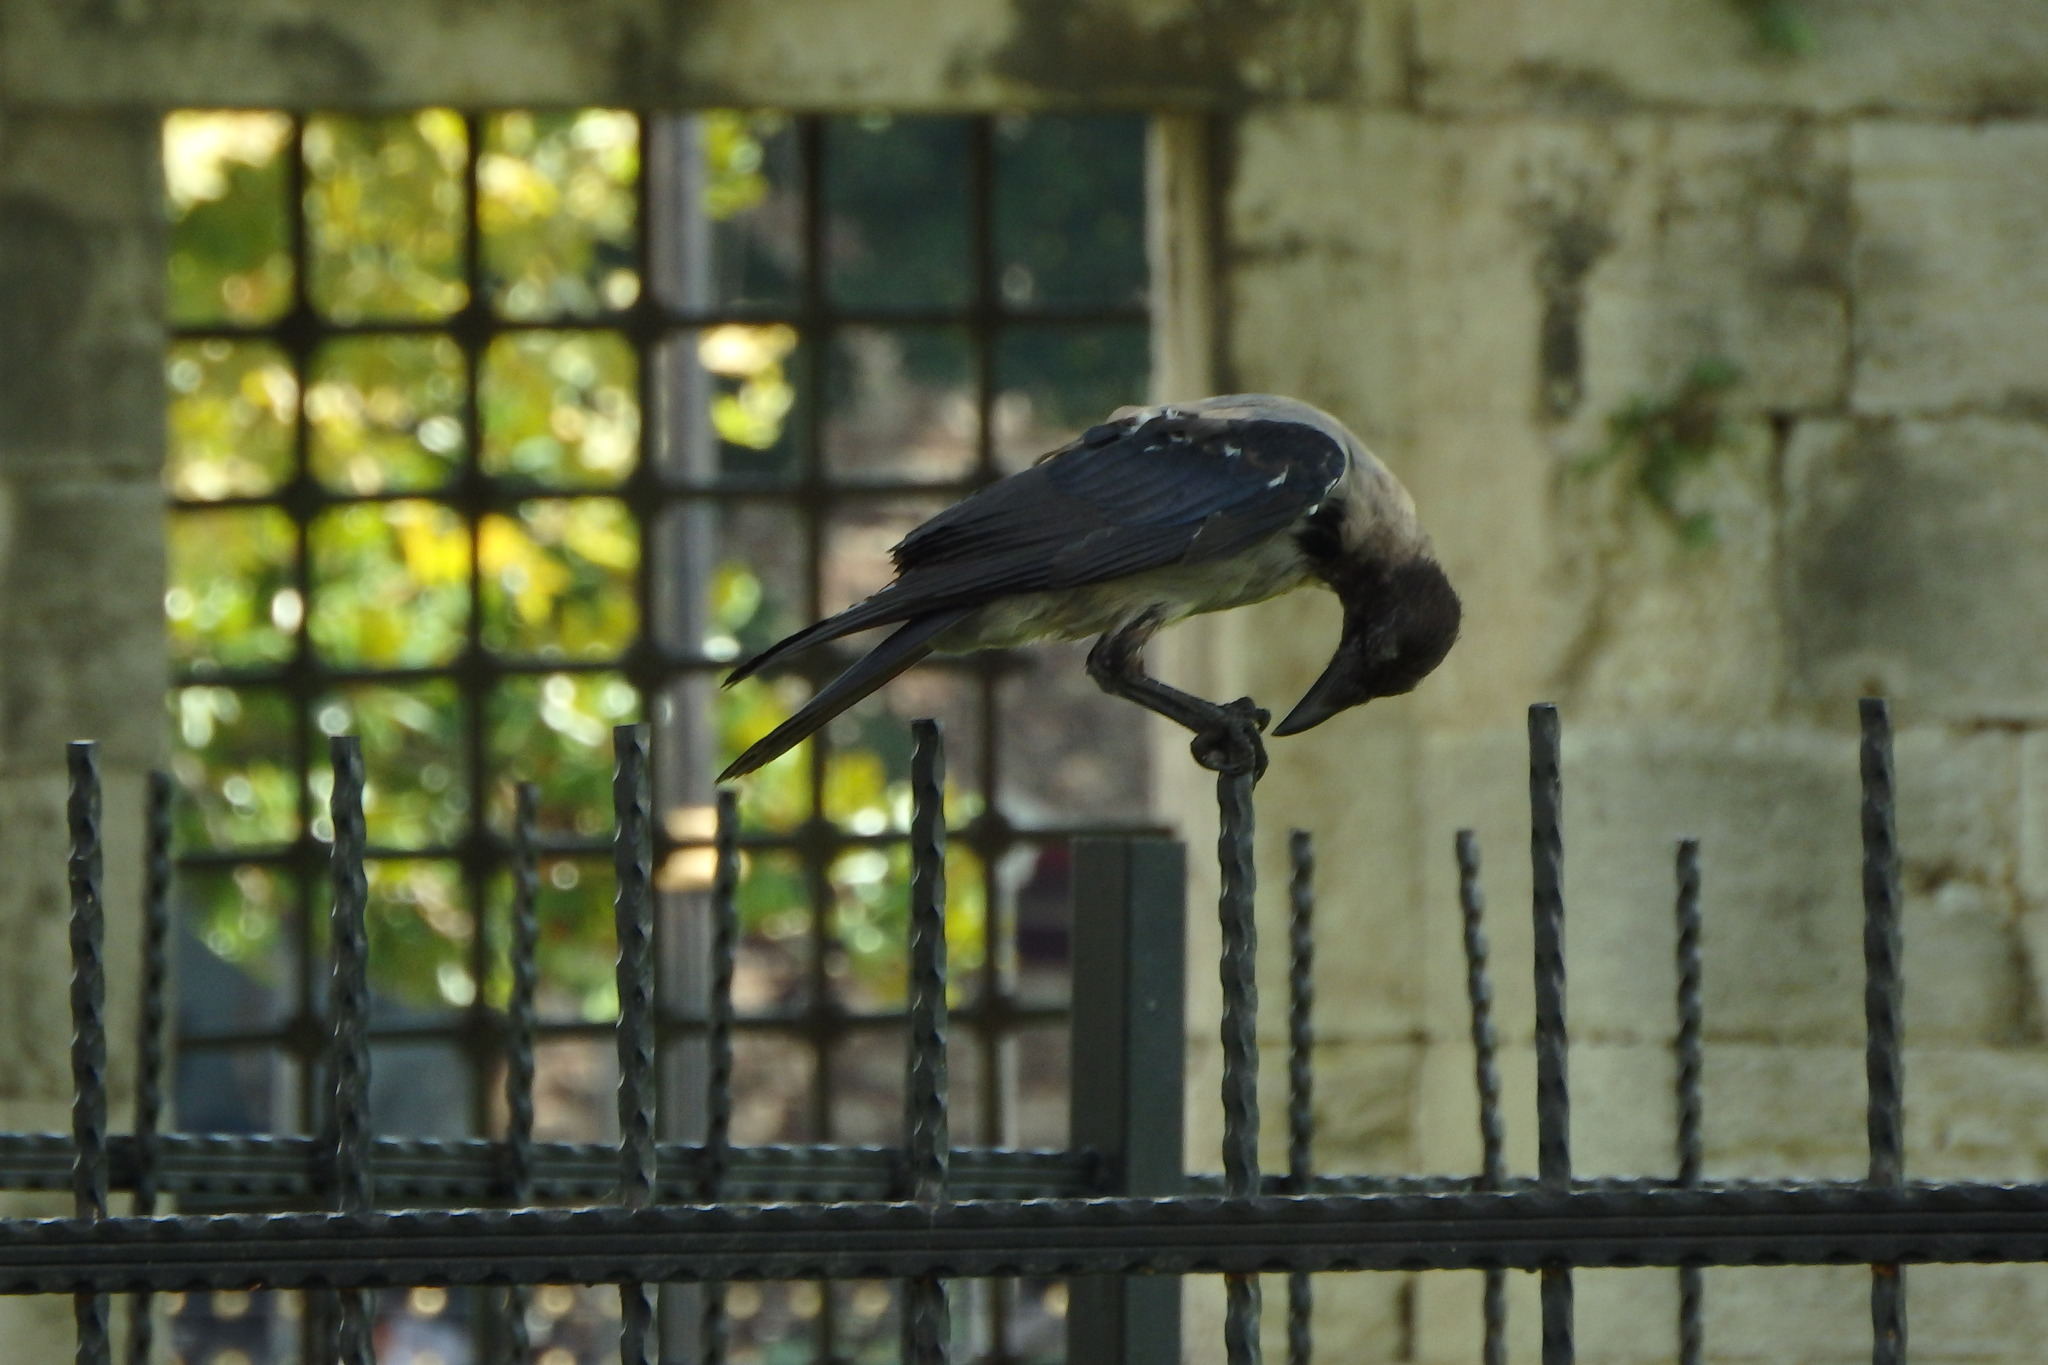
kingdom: Animalia
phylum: Chordata
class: Aves
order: Passeriformes
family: Corvidae
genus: Corvus
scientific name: Corvus cornix
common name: Hooded crow
